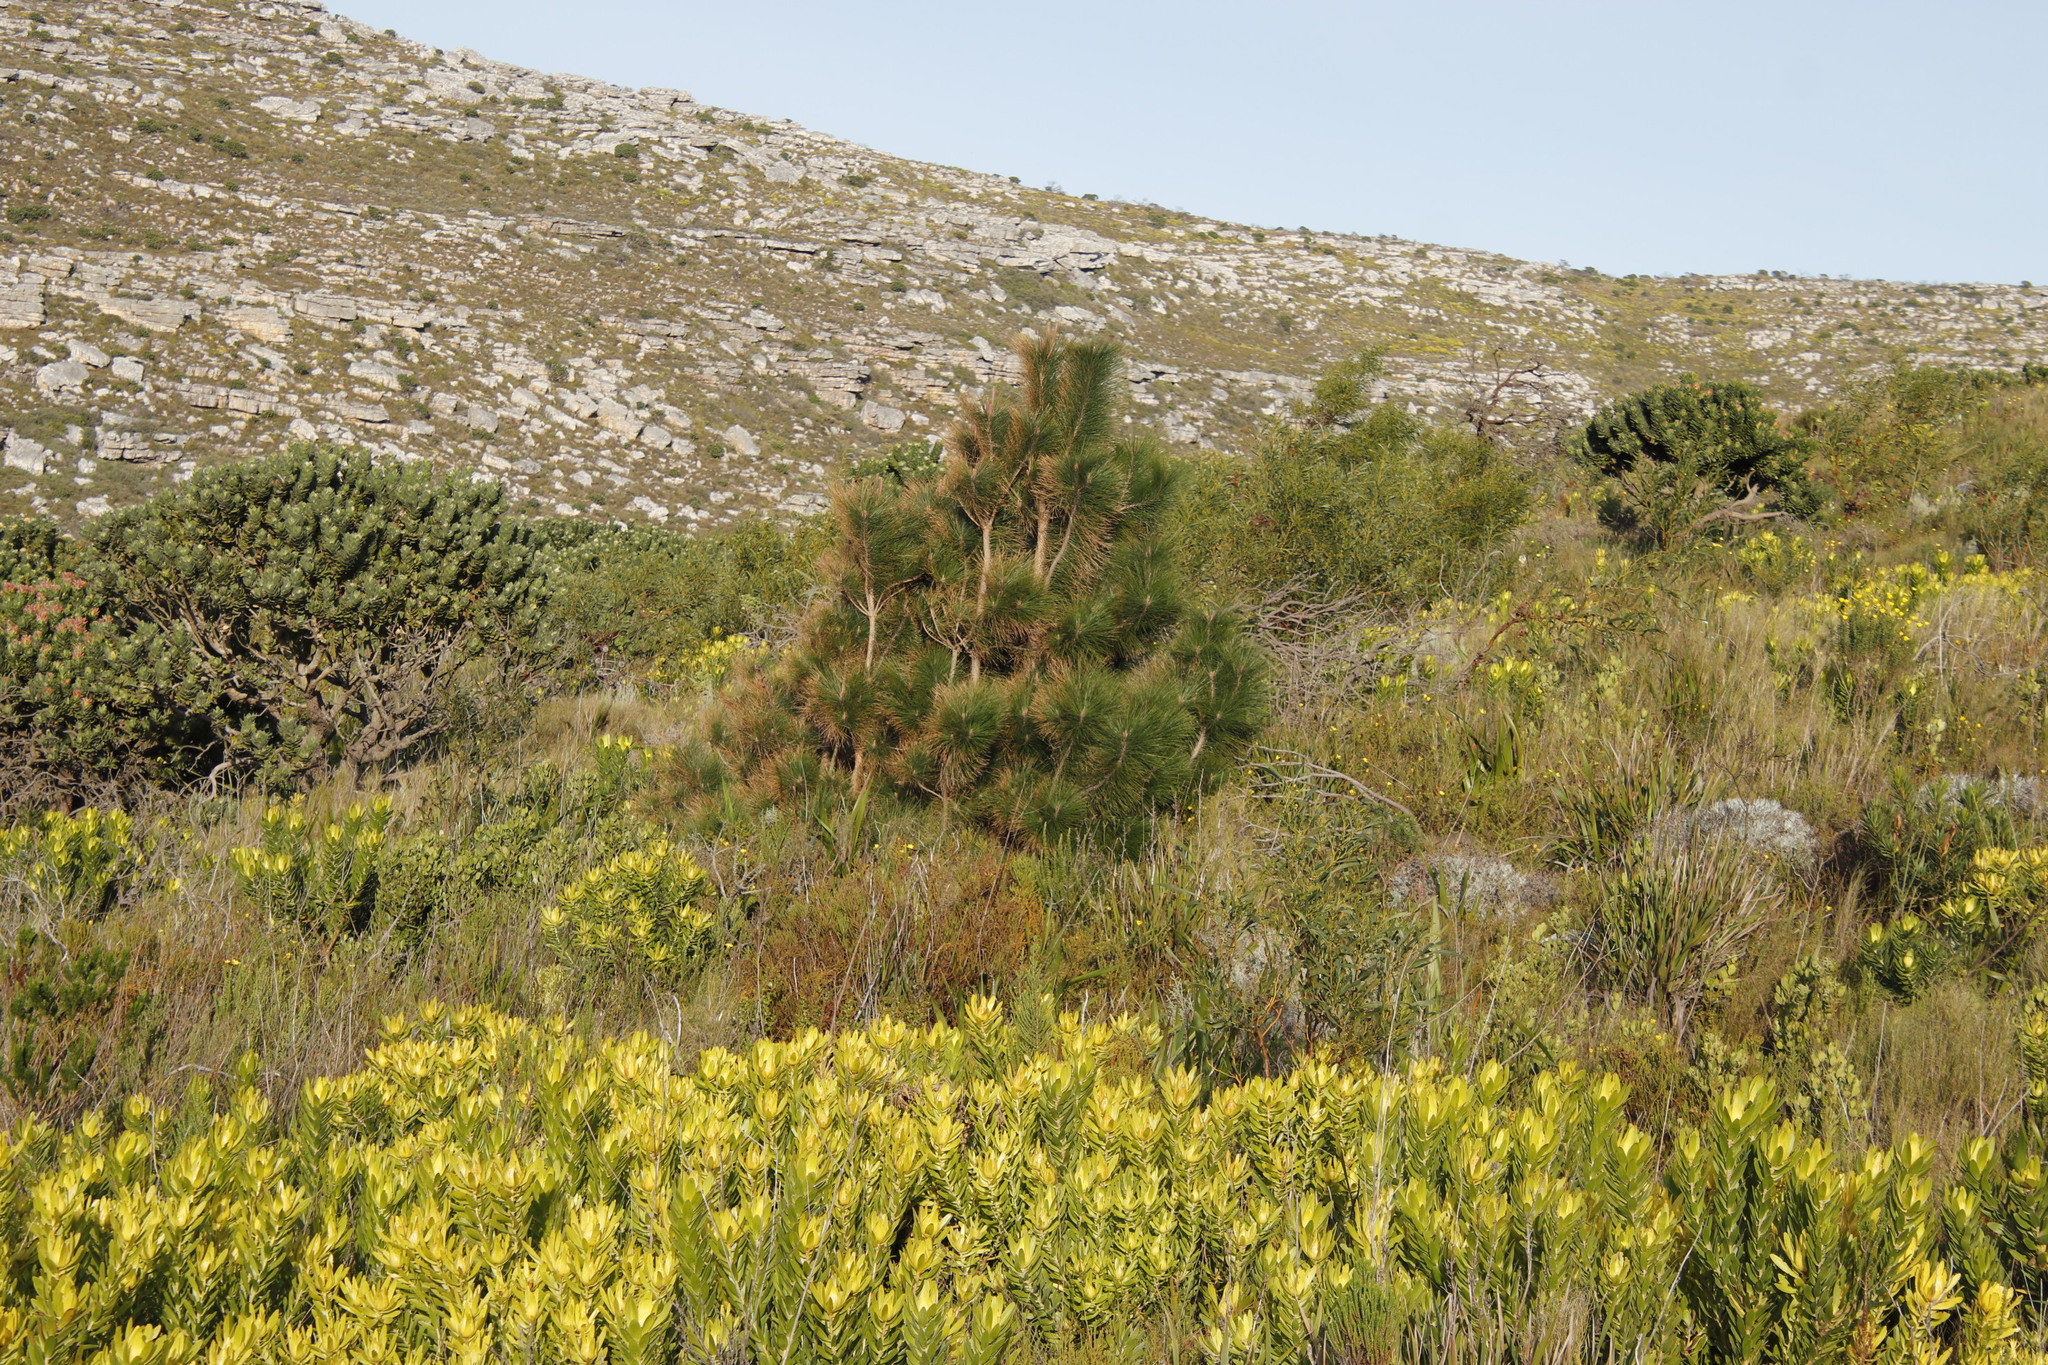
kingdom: Plantae
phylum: Tracheophyta
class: Pinopsida
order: Pinales
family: Pinaceae
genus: Pinus
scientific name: Pinus canariensis
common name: Canary islands pine
